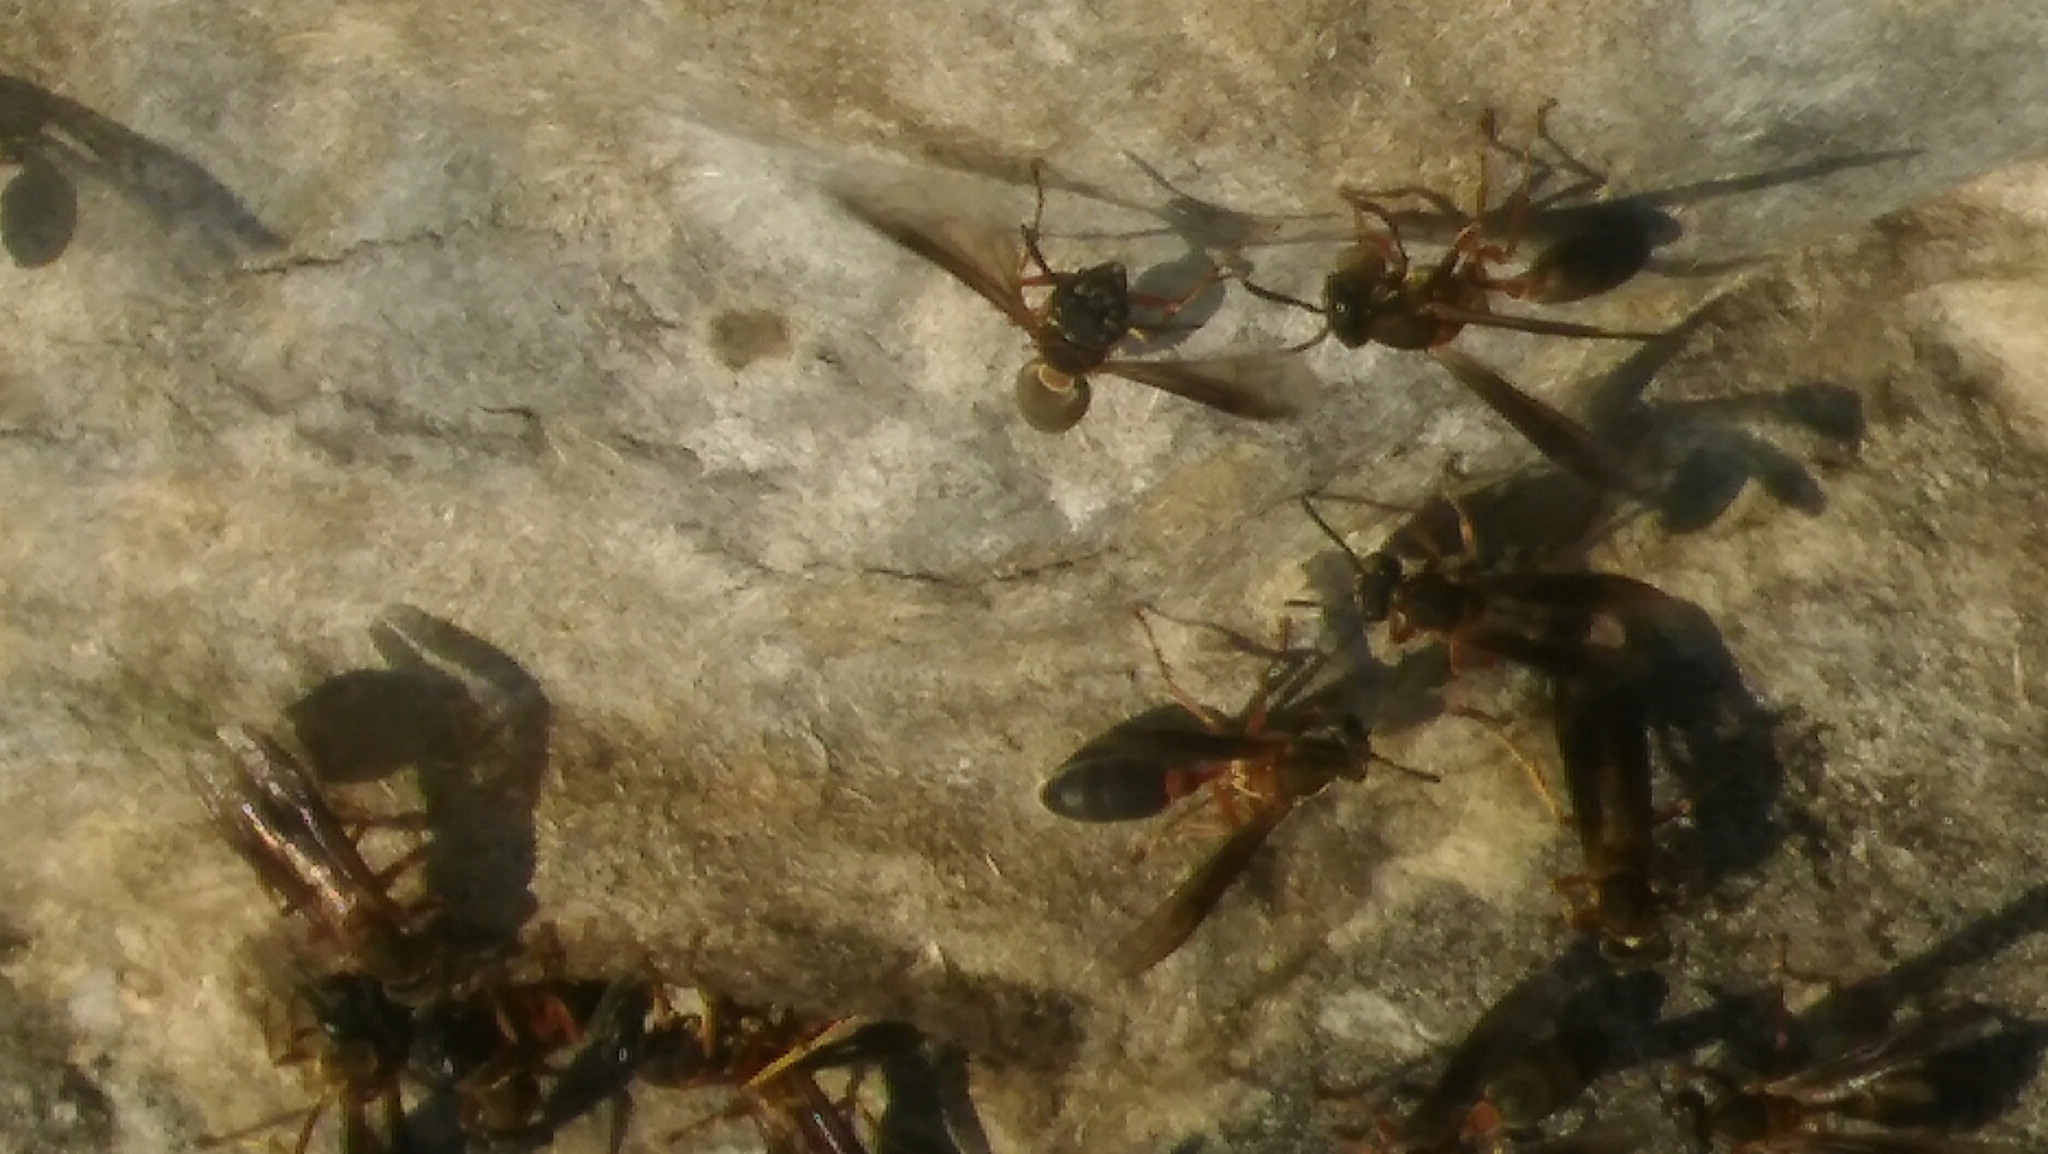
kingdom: Animalia
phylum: Arthropoda
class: Insecta
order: Hymenoptera
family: Eumenidae
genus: Polybia
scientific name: Polybia sericea
